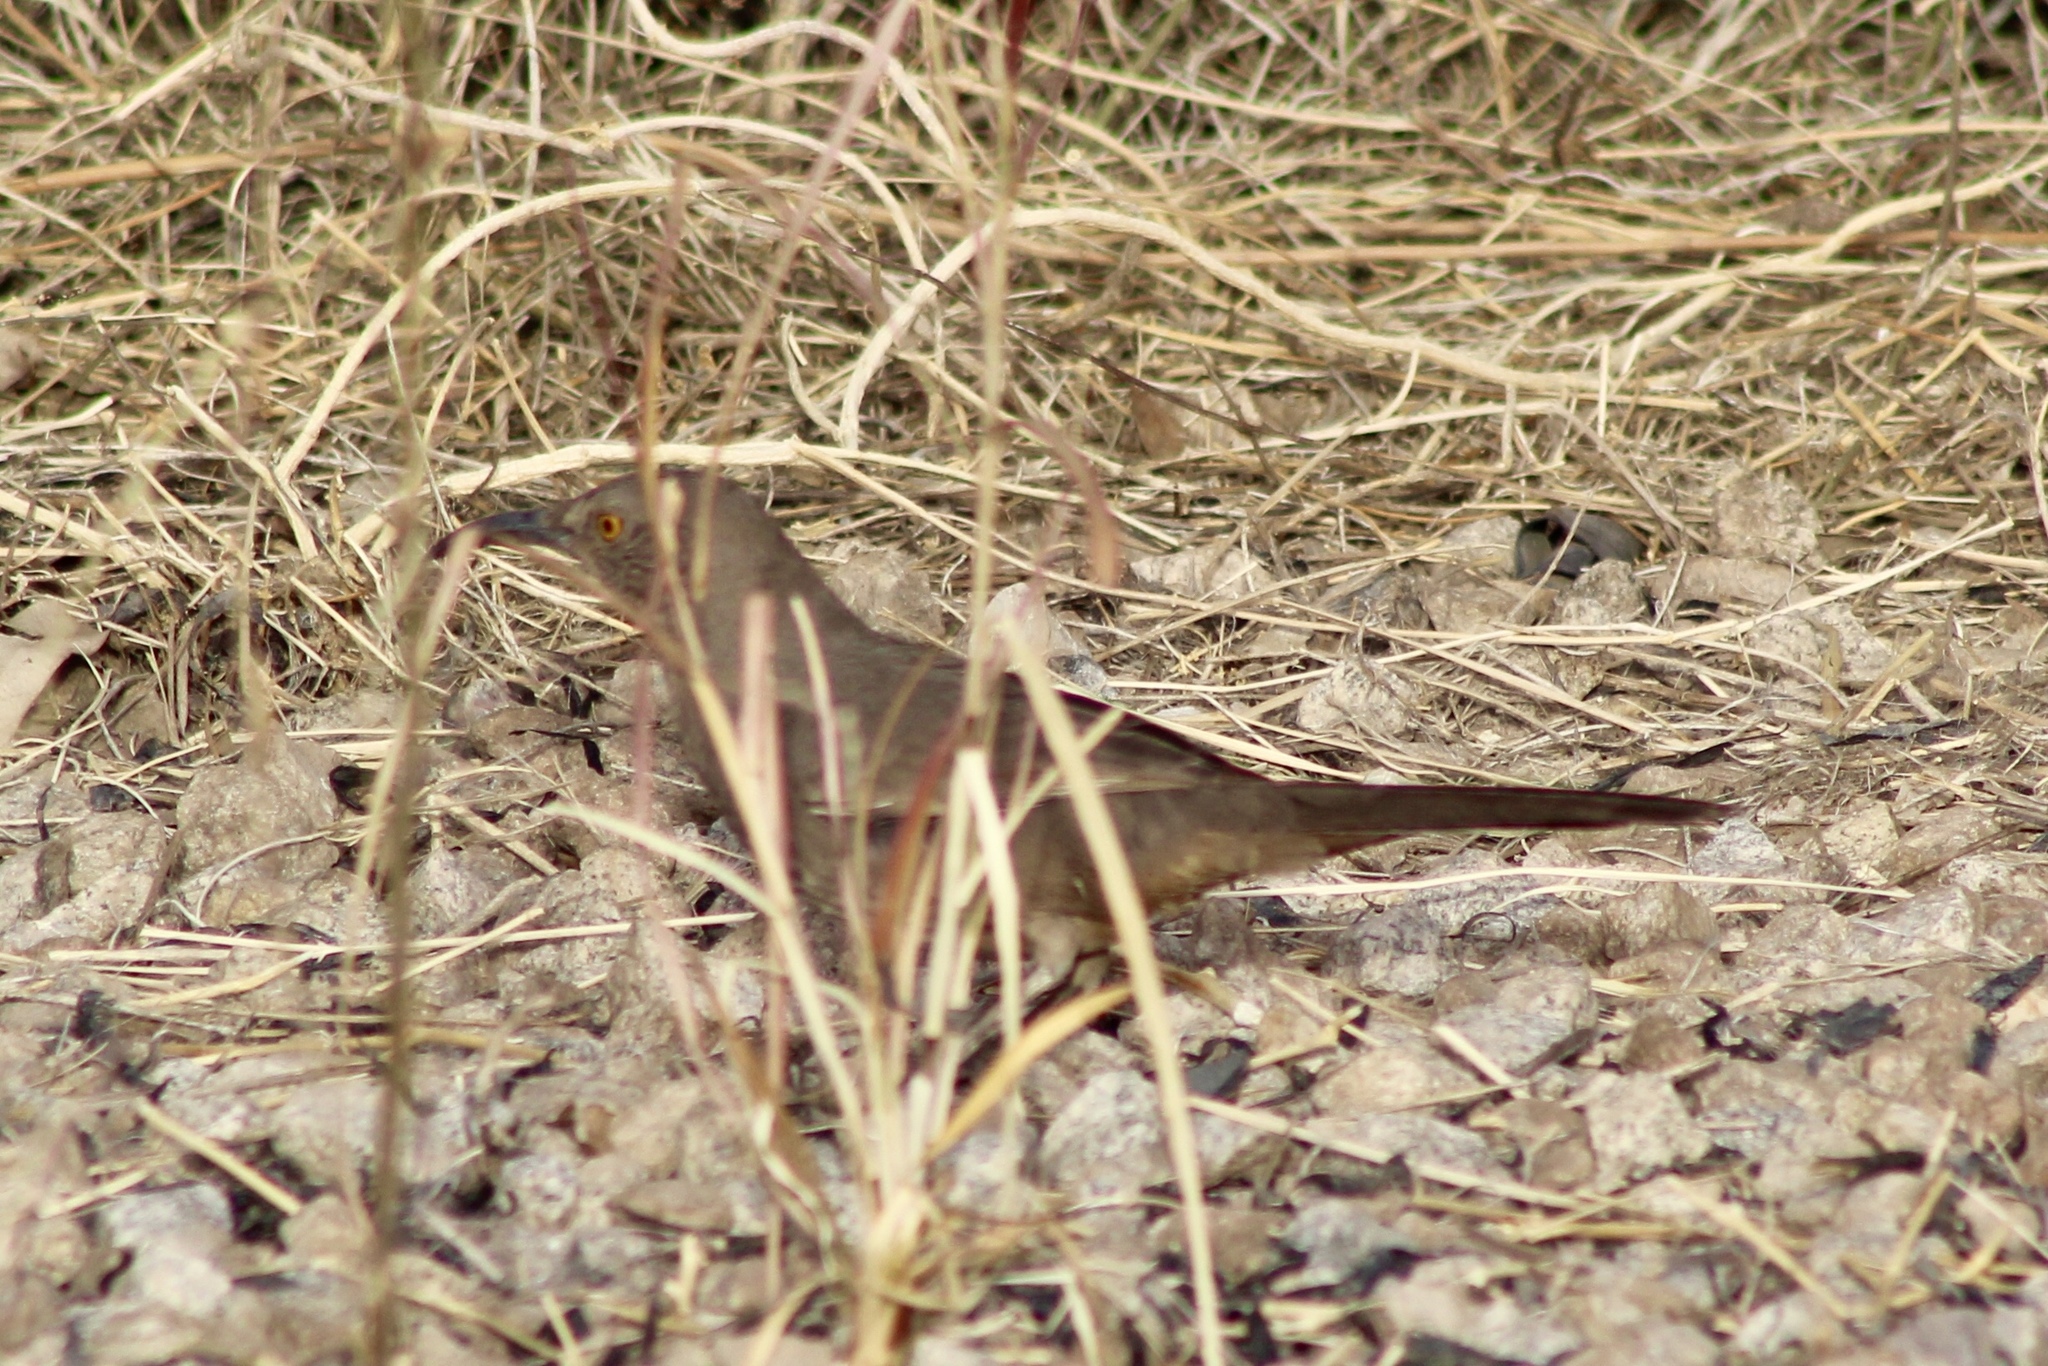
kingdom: Animalia
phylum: Chordata
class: Aves
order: Passeriformes
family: Mimidae
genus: Toxostoma
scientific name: Toxostoma curvirostre
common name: Curve-billed thrasher
